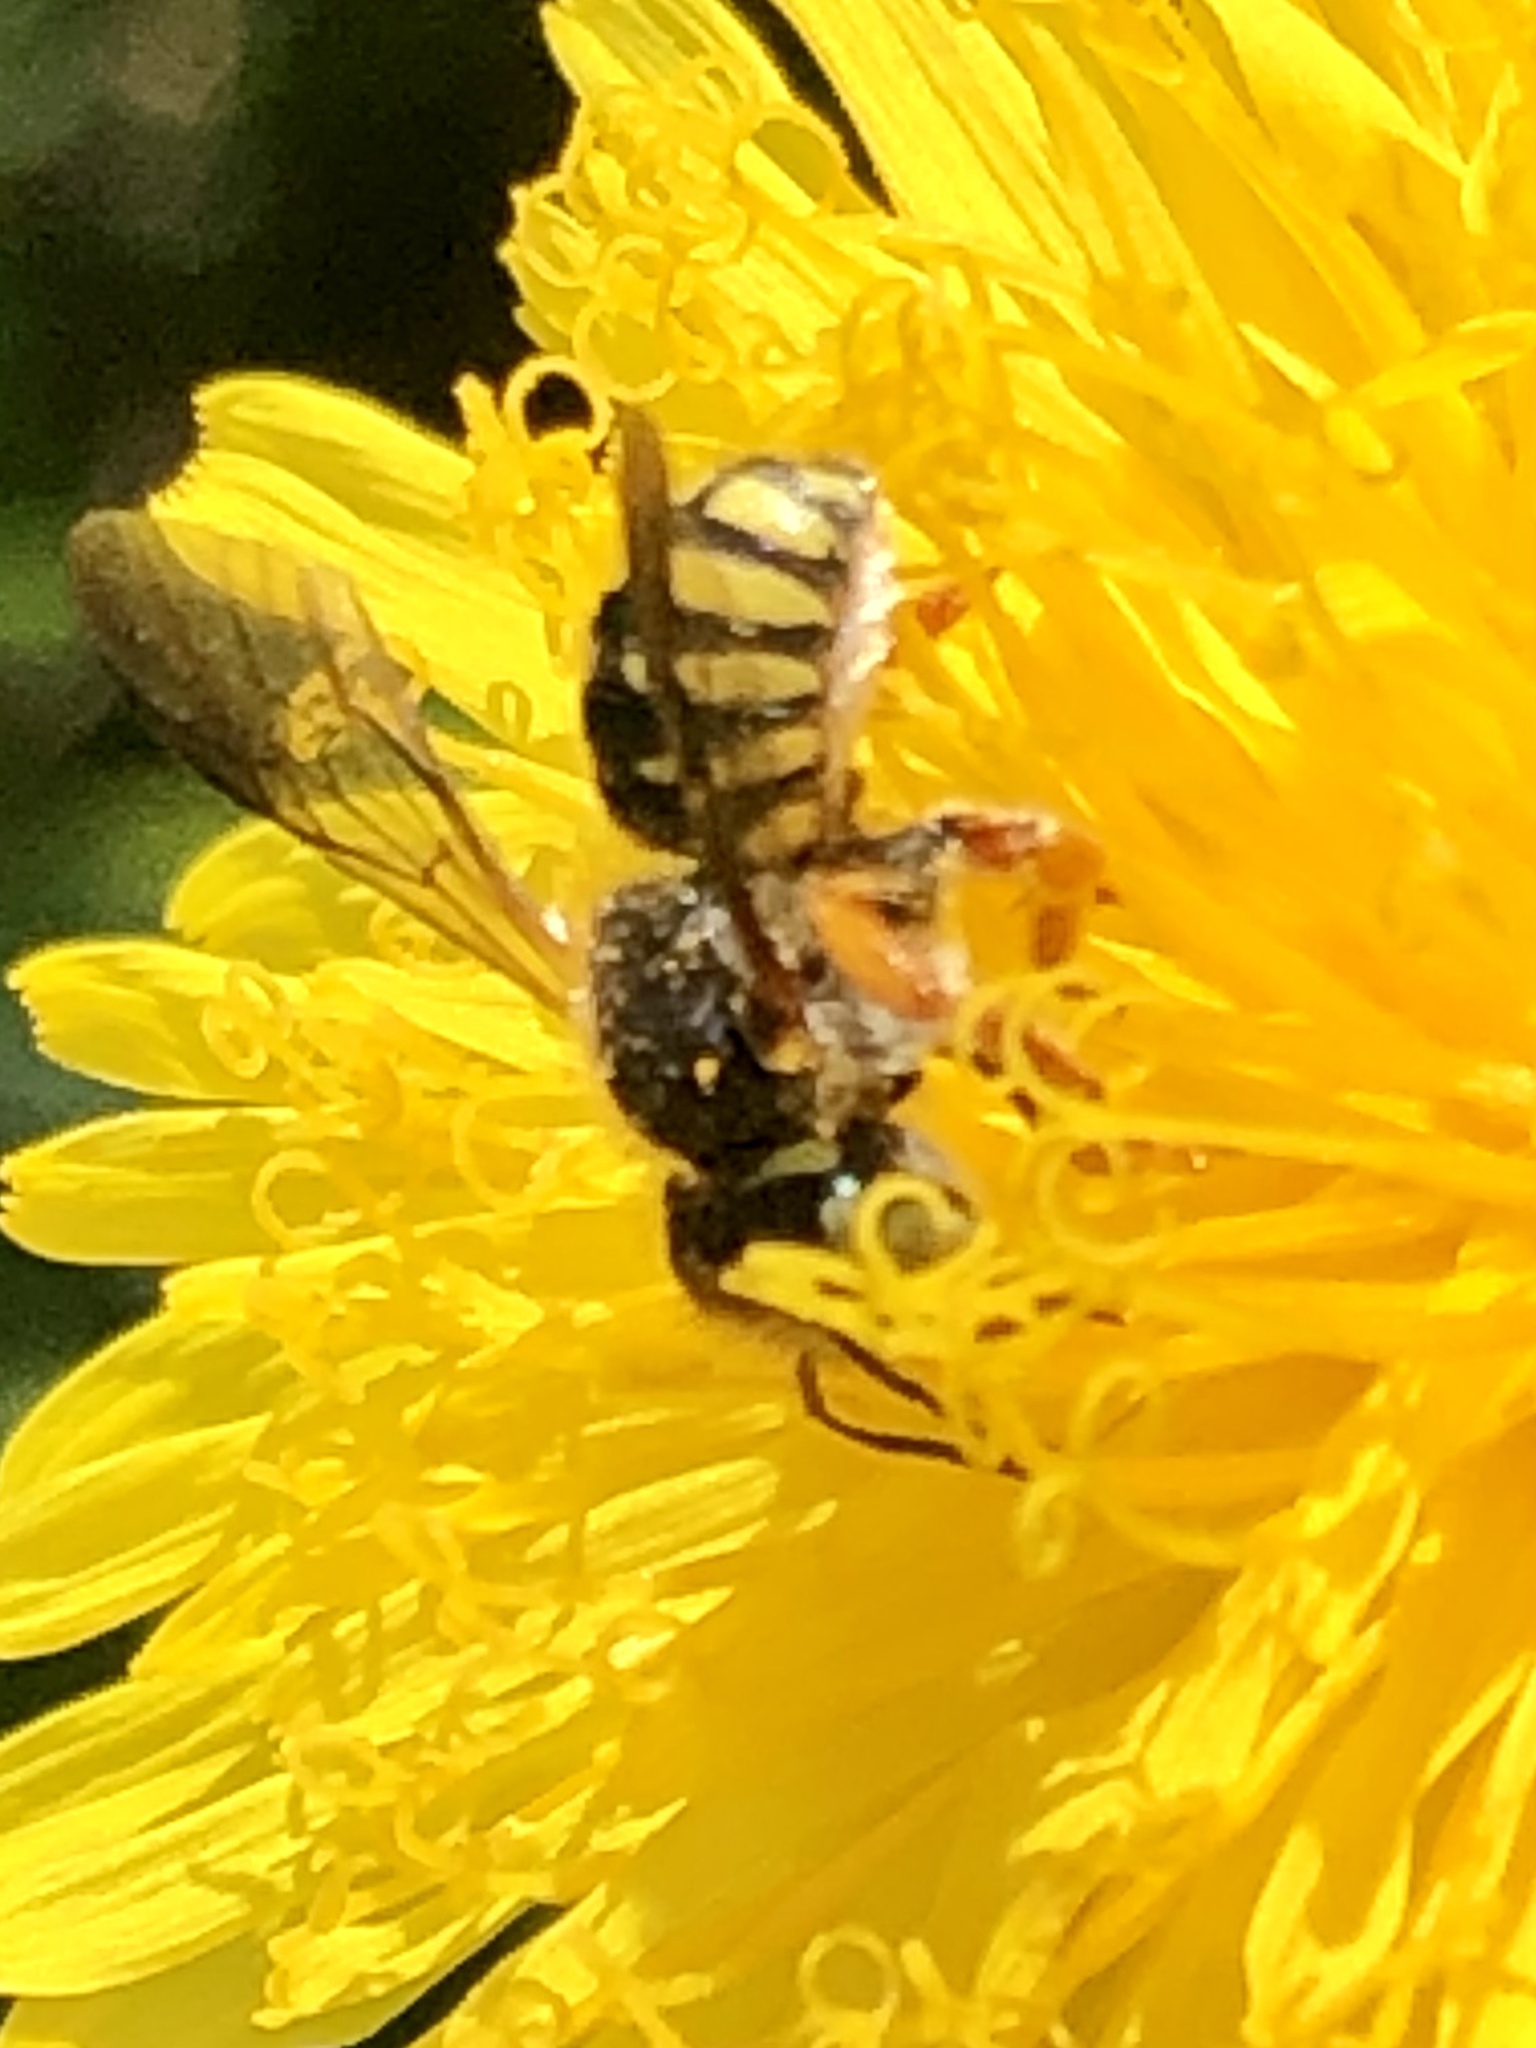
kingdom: Animalia
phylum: Arthropoda
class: Insecta
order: Hymenoptera
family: Megachilidae
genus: Anthidium
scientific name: Anthidium oblongatum
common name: Oblong wool carder bee
